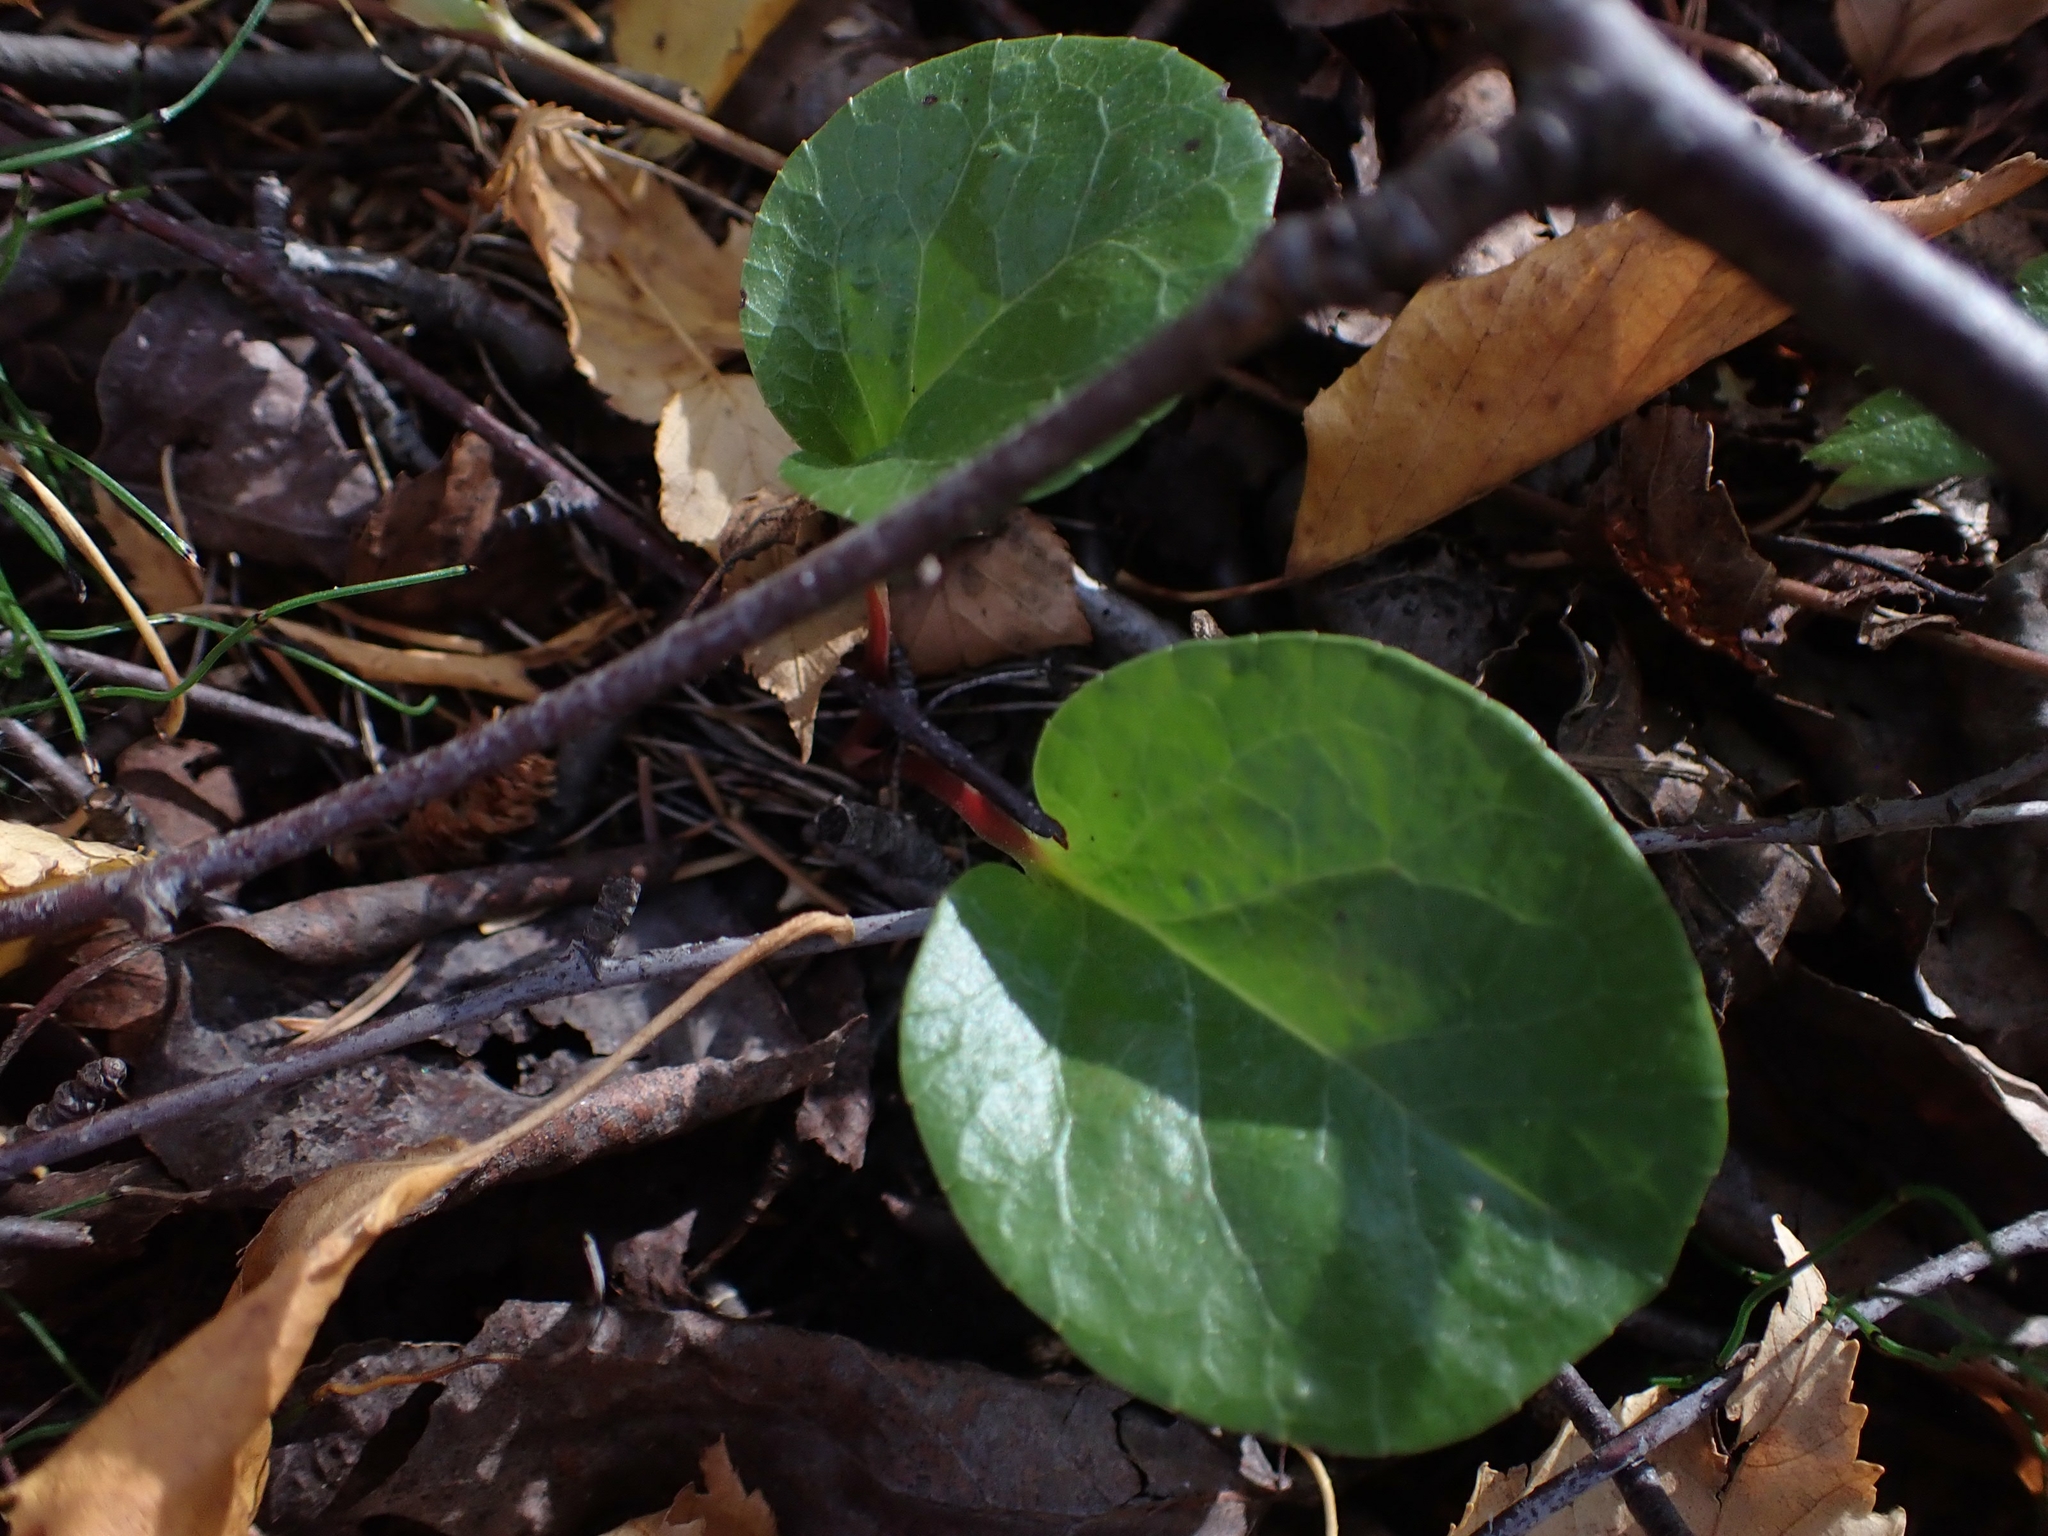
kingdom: Plantae
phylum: Tracheophyta
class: Magnoliopsida
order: Ericales
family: Ericaceae
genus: Pyrola
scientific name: Pyrola asarifolia
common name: Bog wintergreen
